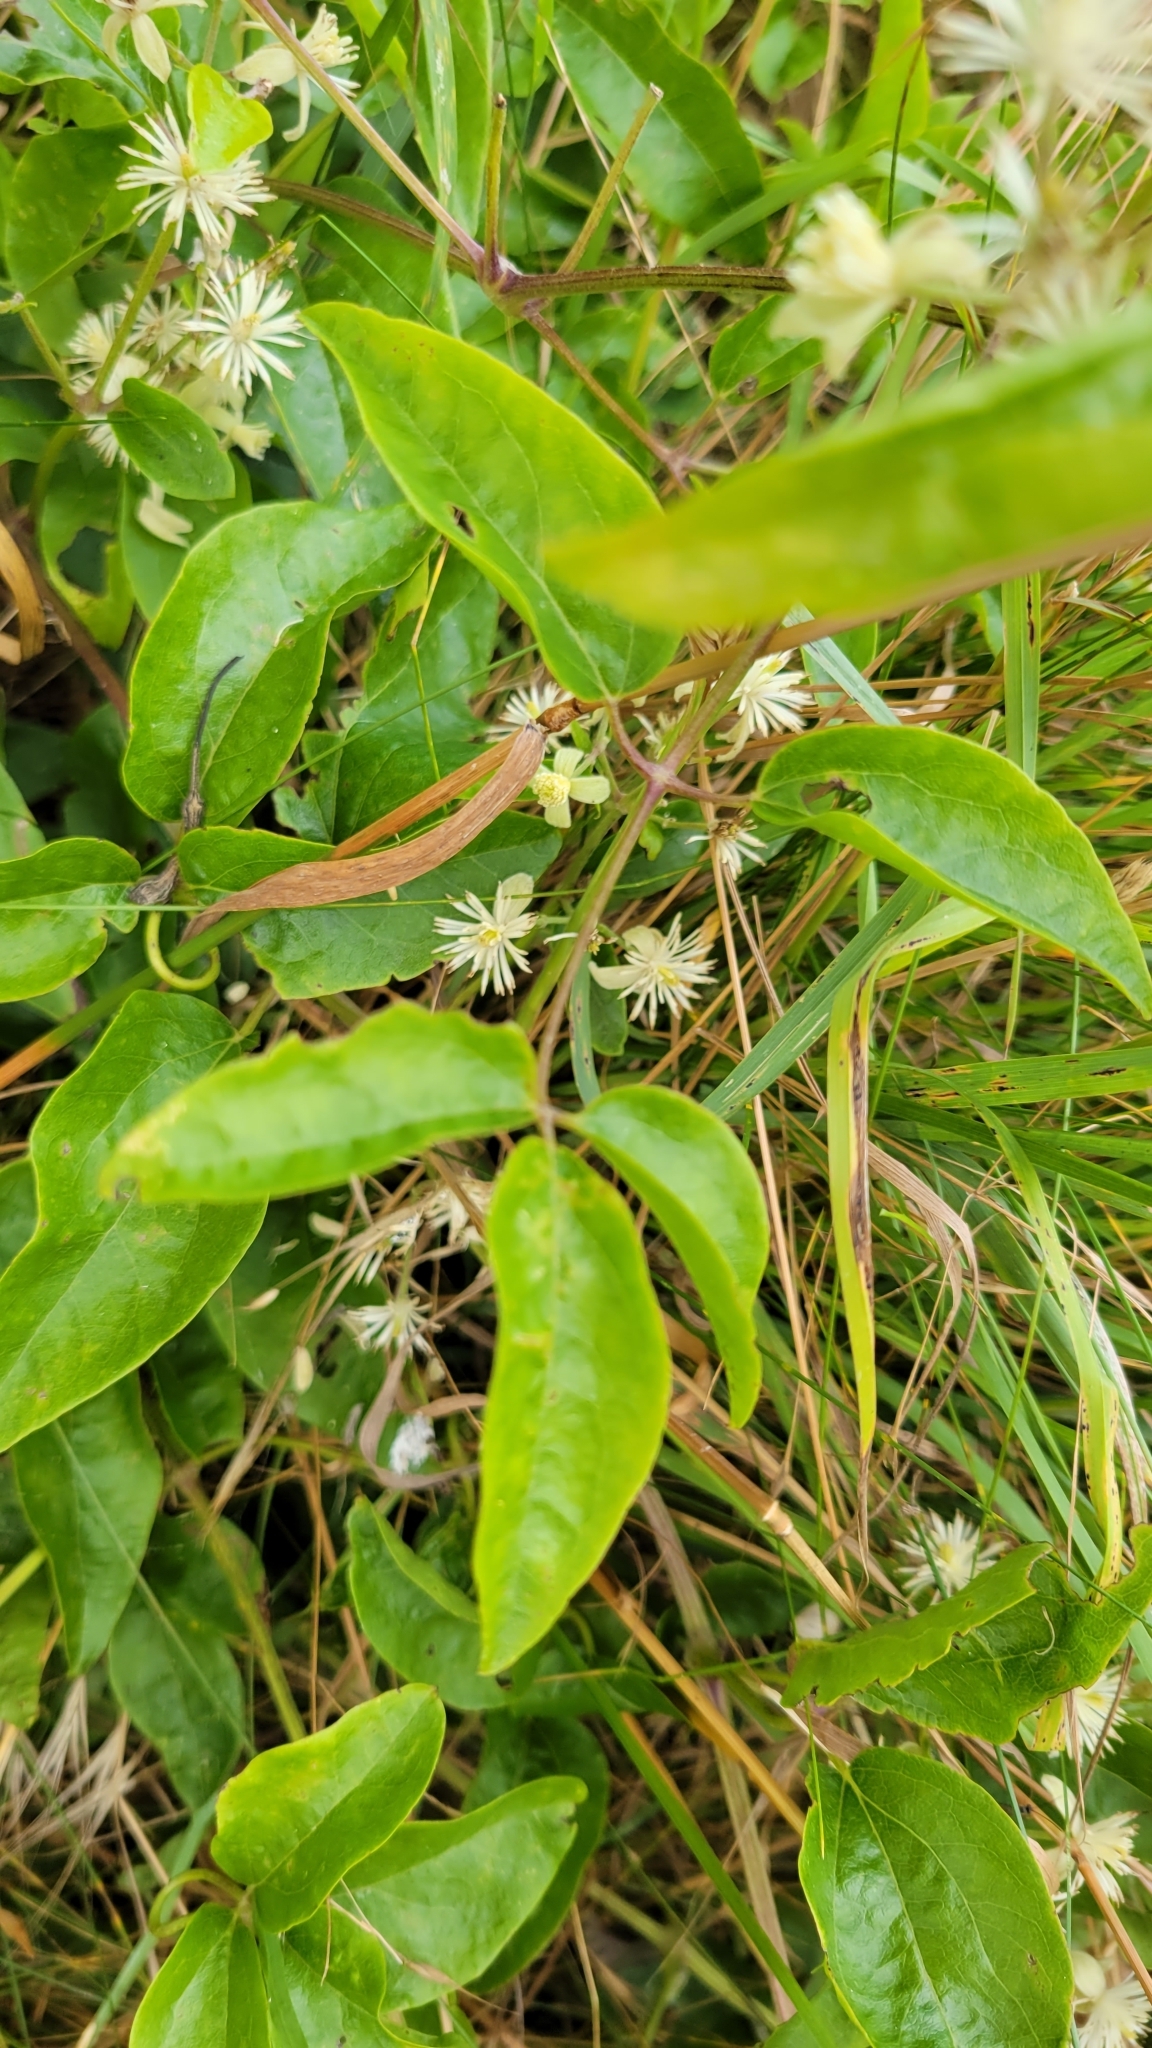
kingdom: Plantae
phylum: Tracheophyta
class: Magnoliopsida
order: Ranunculales
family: Ranunculaceae
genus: Clematis
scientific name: Clematis vitalba
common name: Evergreen clematis
